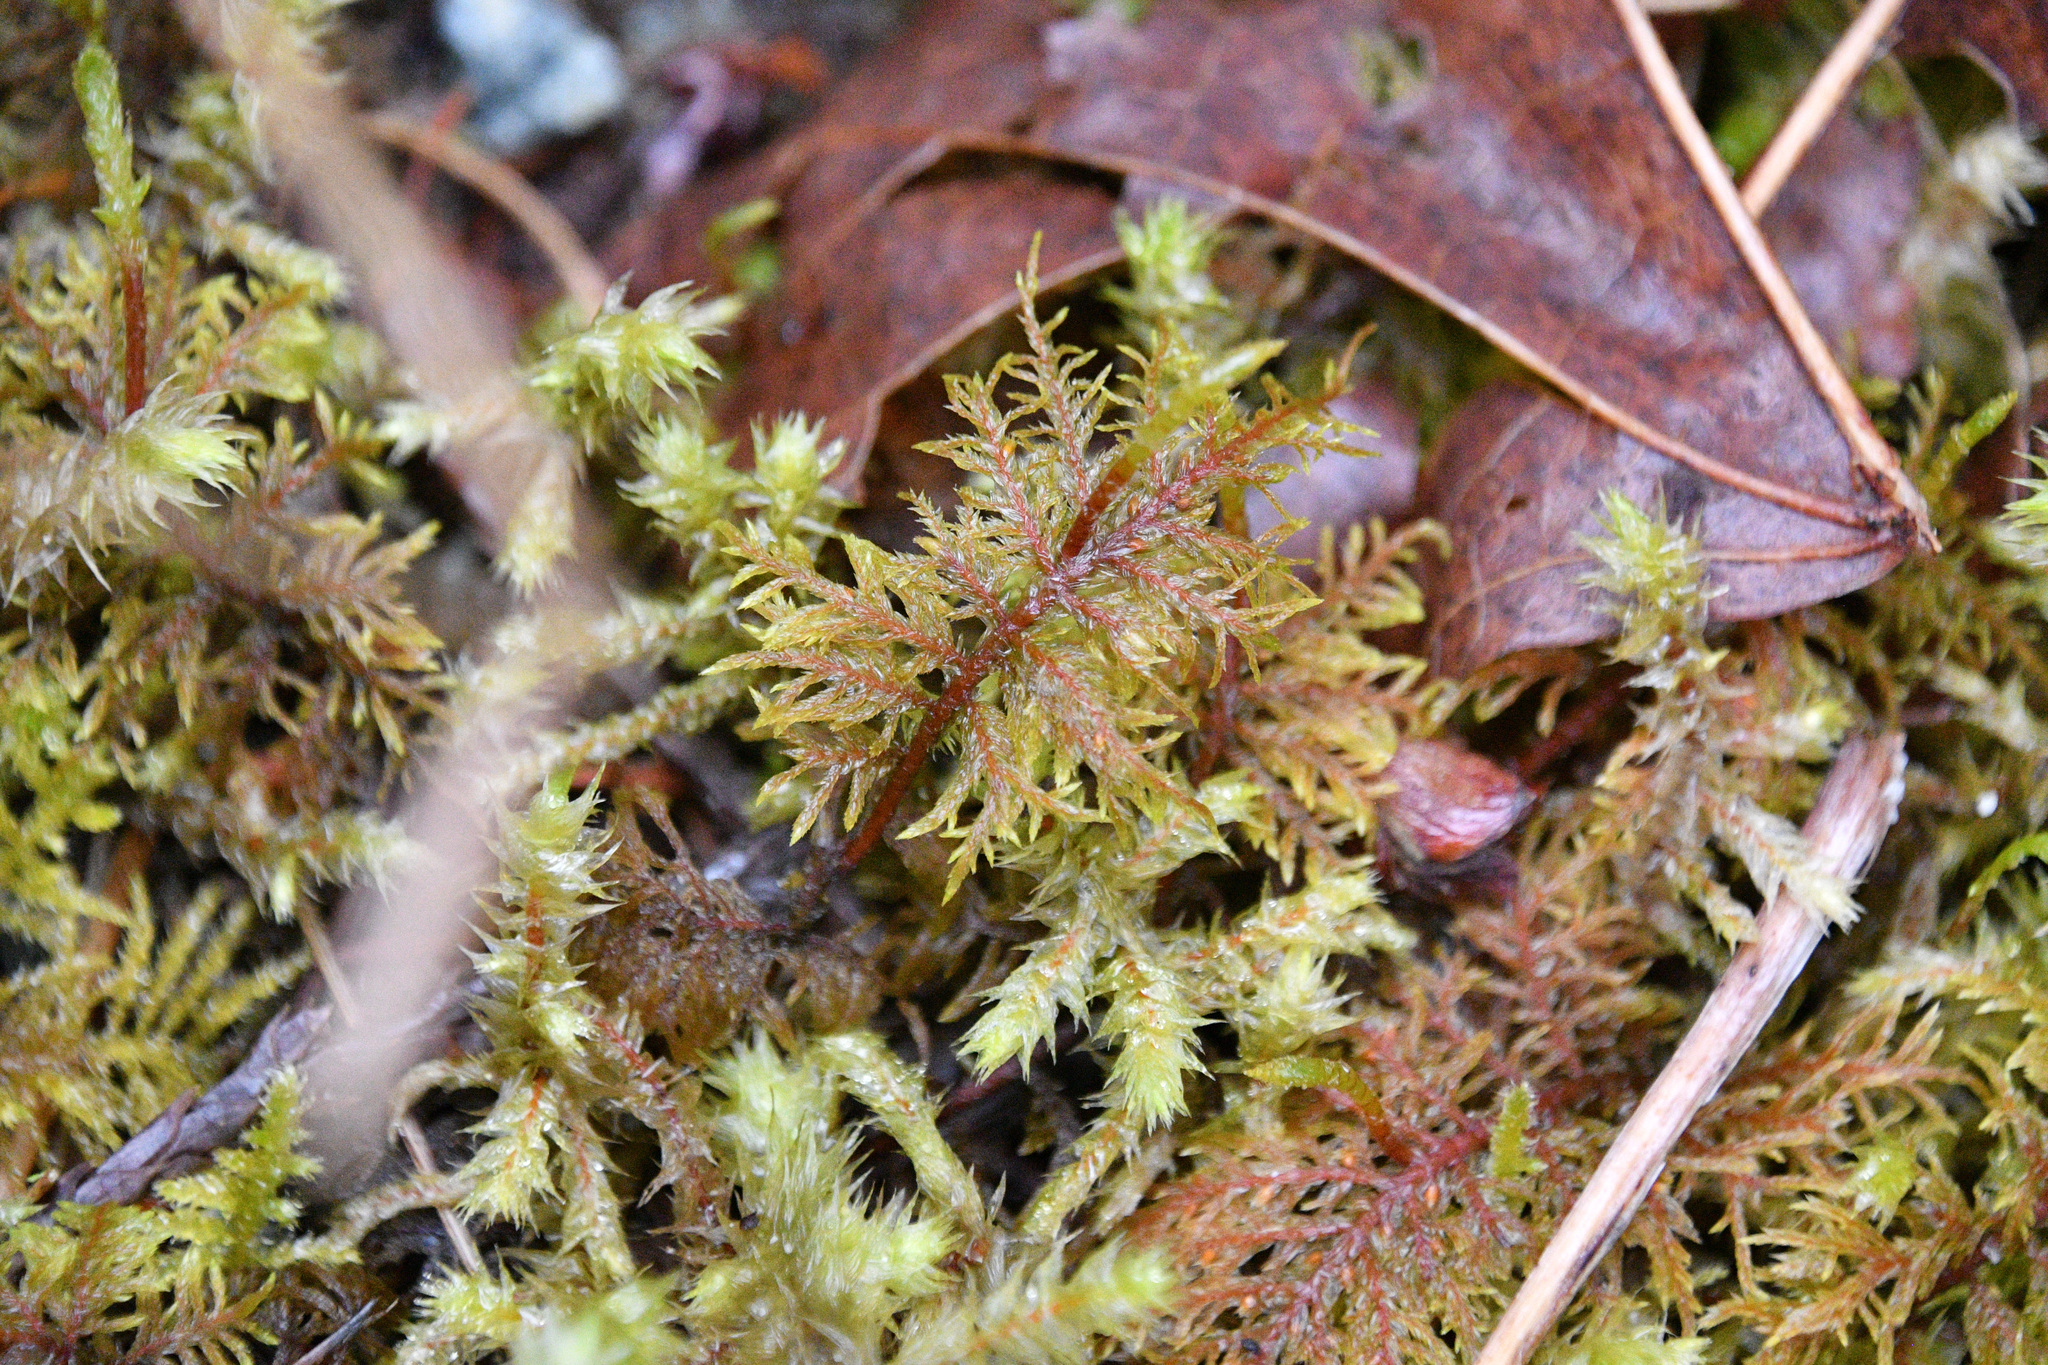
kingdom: Plantae
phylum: Bryophyta
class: Bryopsida
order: Hypnales
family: Hylocomiaceae
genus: Hylocomium
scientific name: Hylocomium splendens
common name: Stairstep moss
